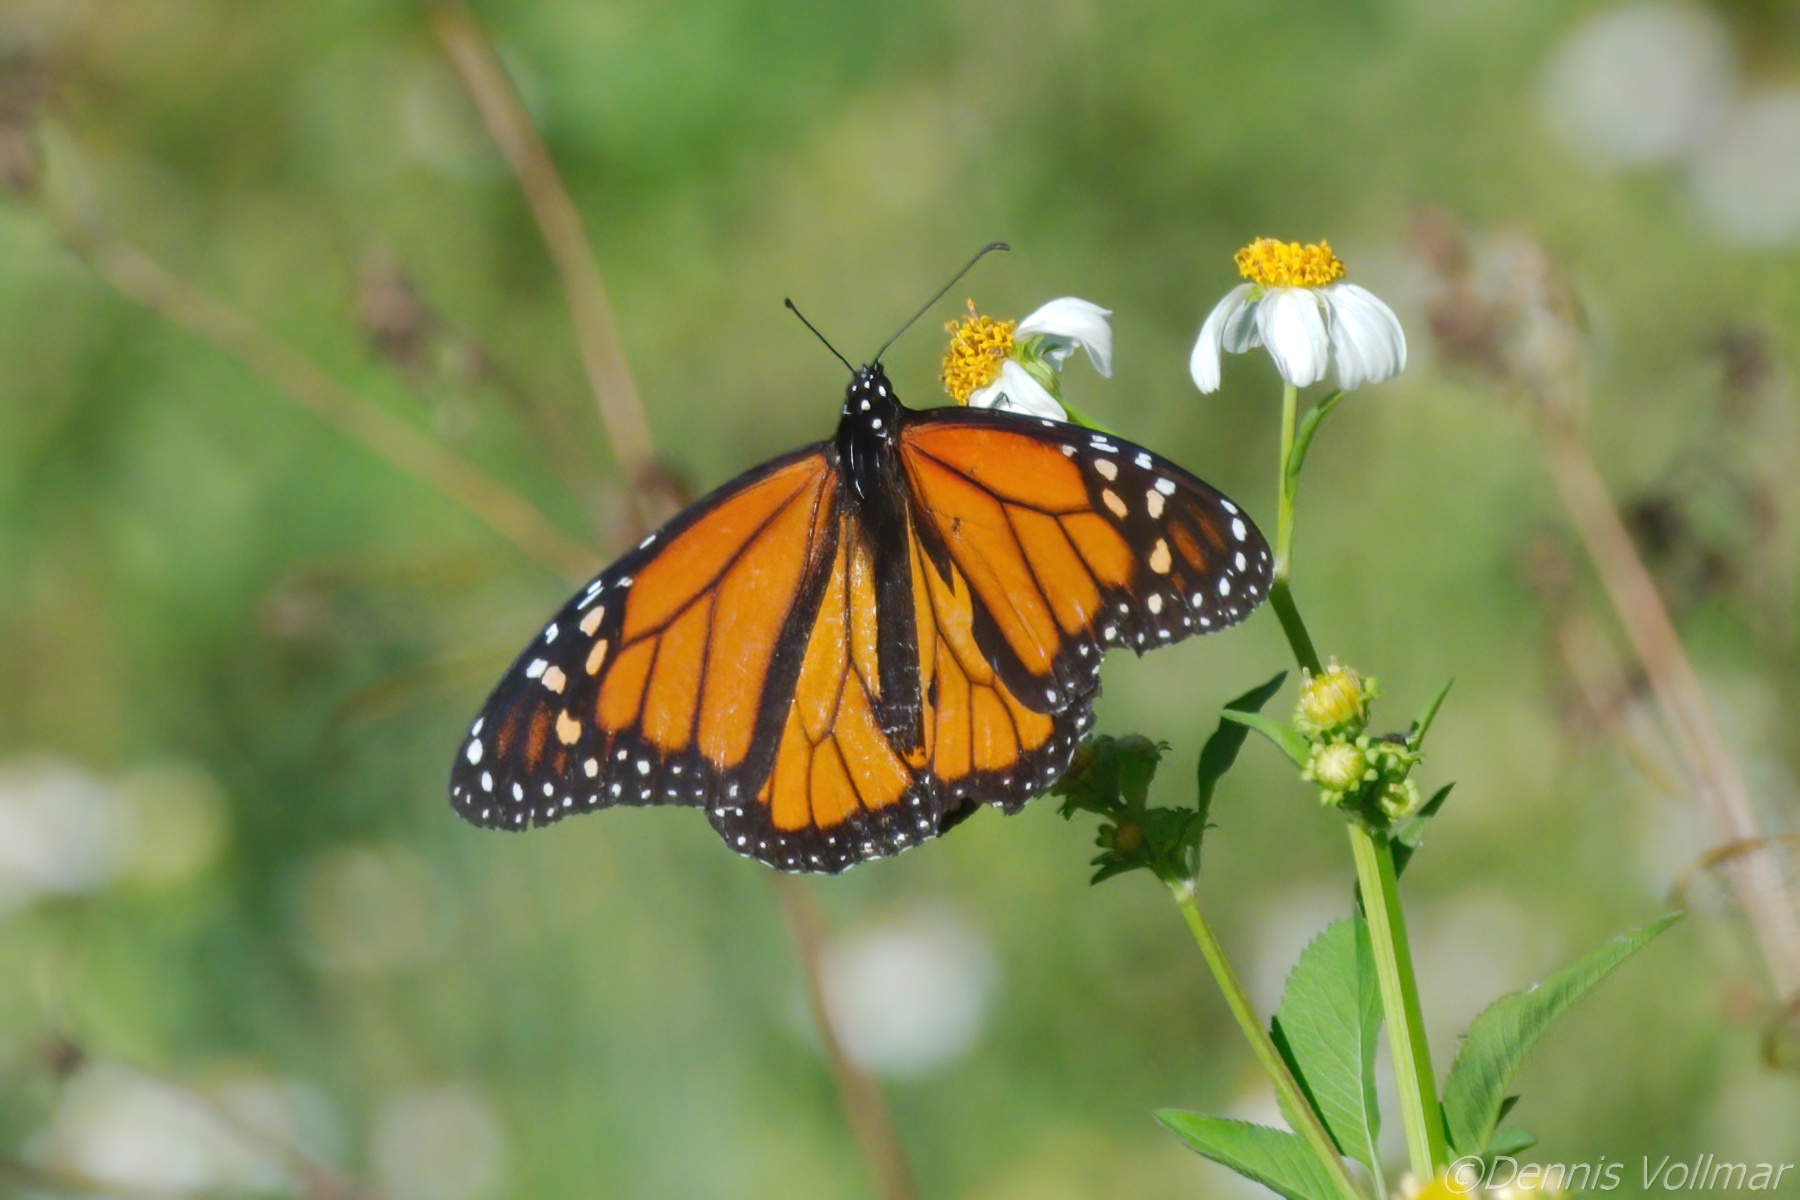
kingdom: Animalia
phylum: Arthropoda
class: Insecta
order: Lepidoptera
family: Nymphalidae
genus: Danaus
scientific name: Danaus plexippus
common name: Monarch
